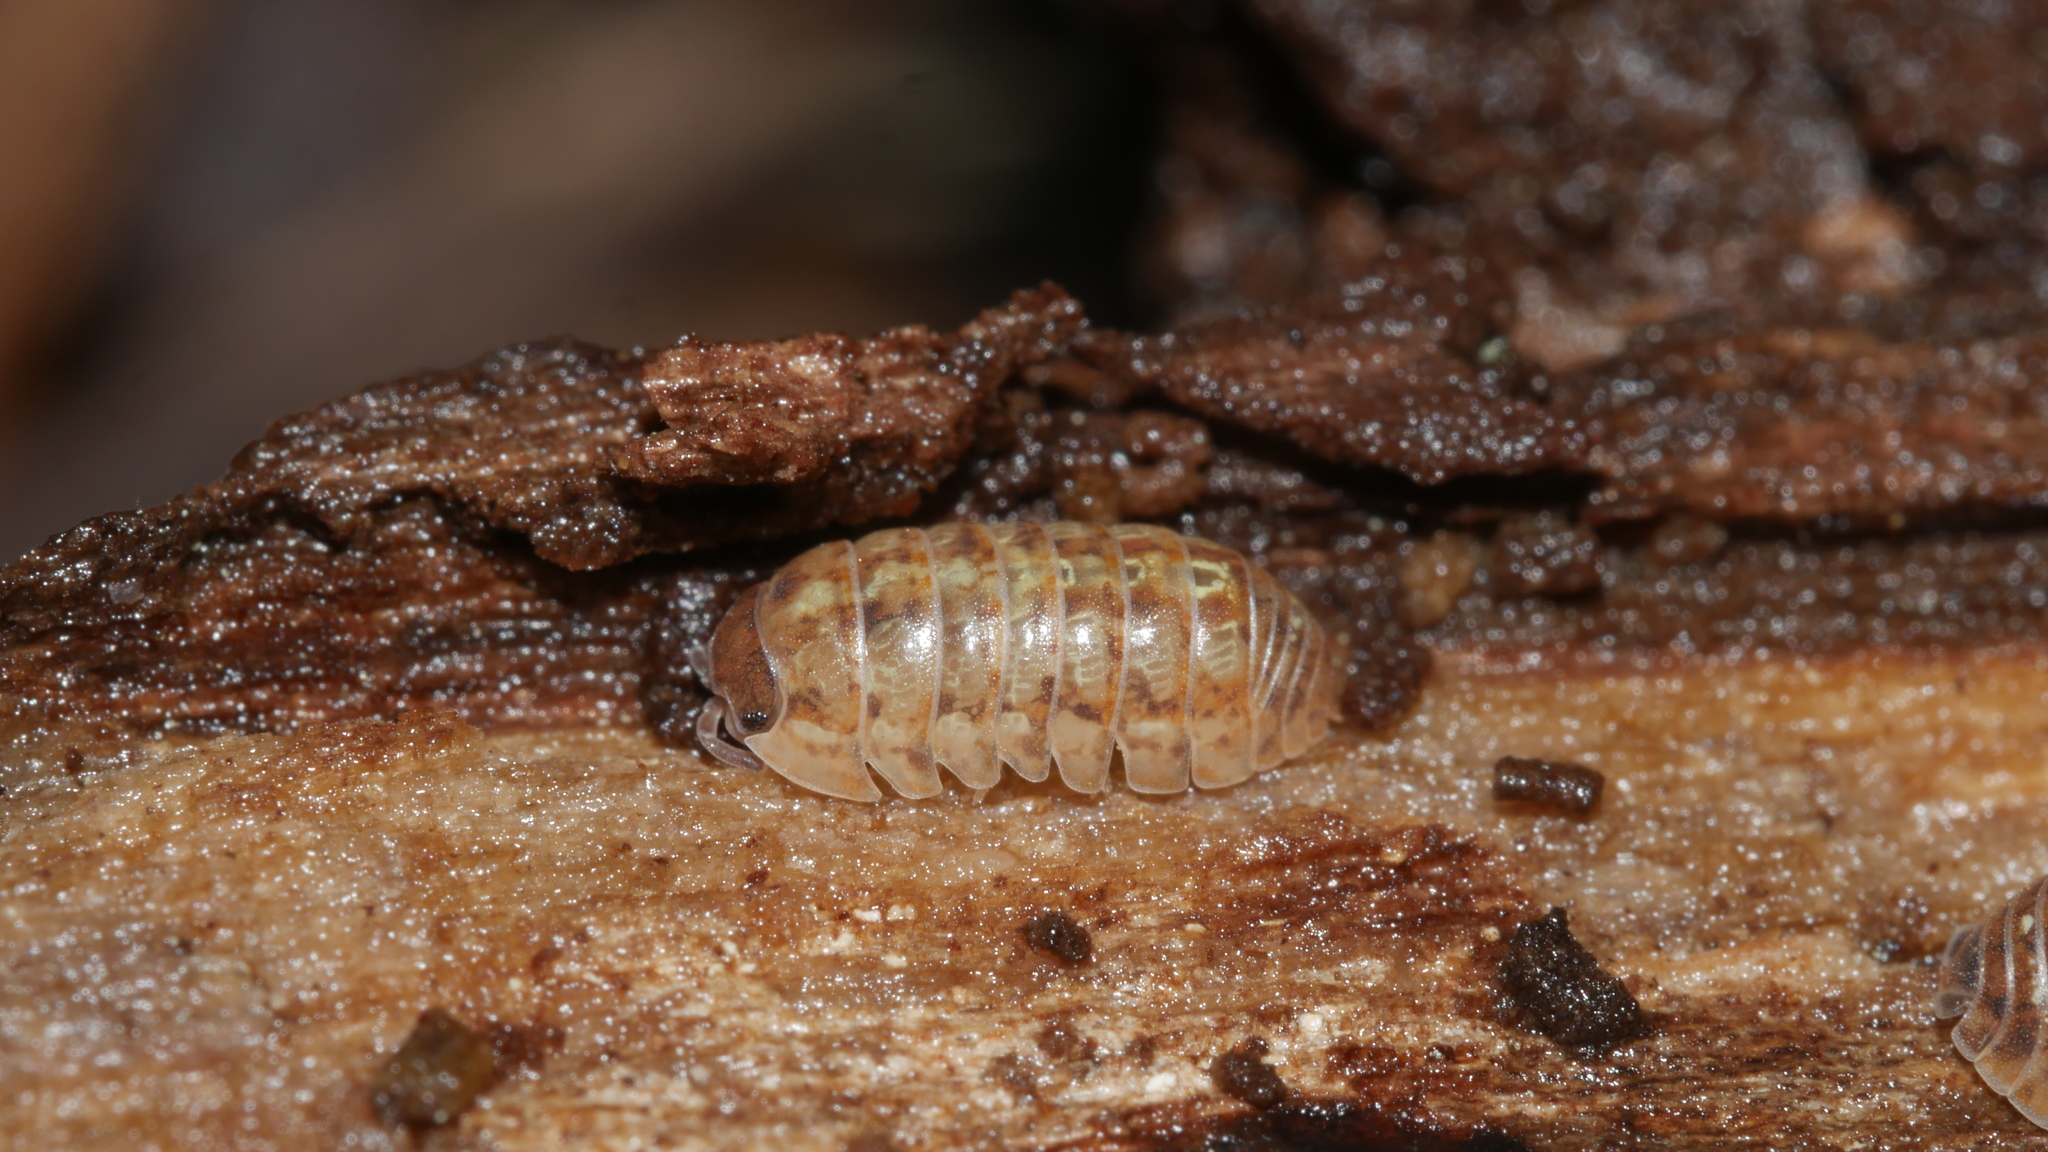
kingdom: Animalia
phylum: Arthropoda
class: Malacostraca
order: Isopoda
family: Armadillidiidae
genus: Armadillidium
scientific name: Armadillidium vulgare
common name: Common pill woodlouse
